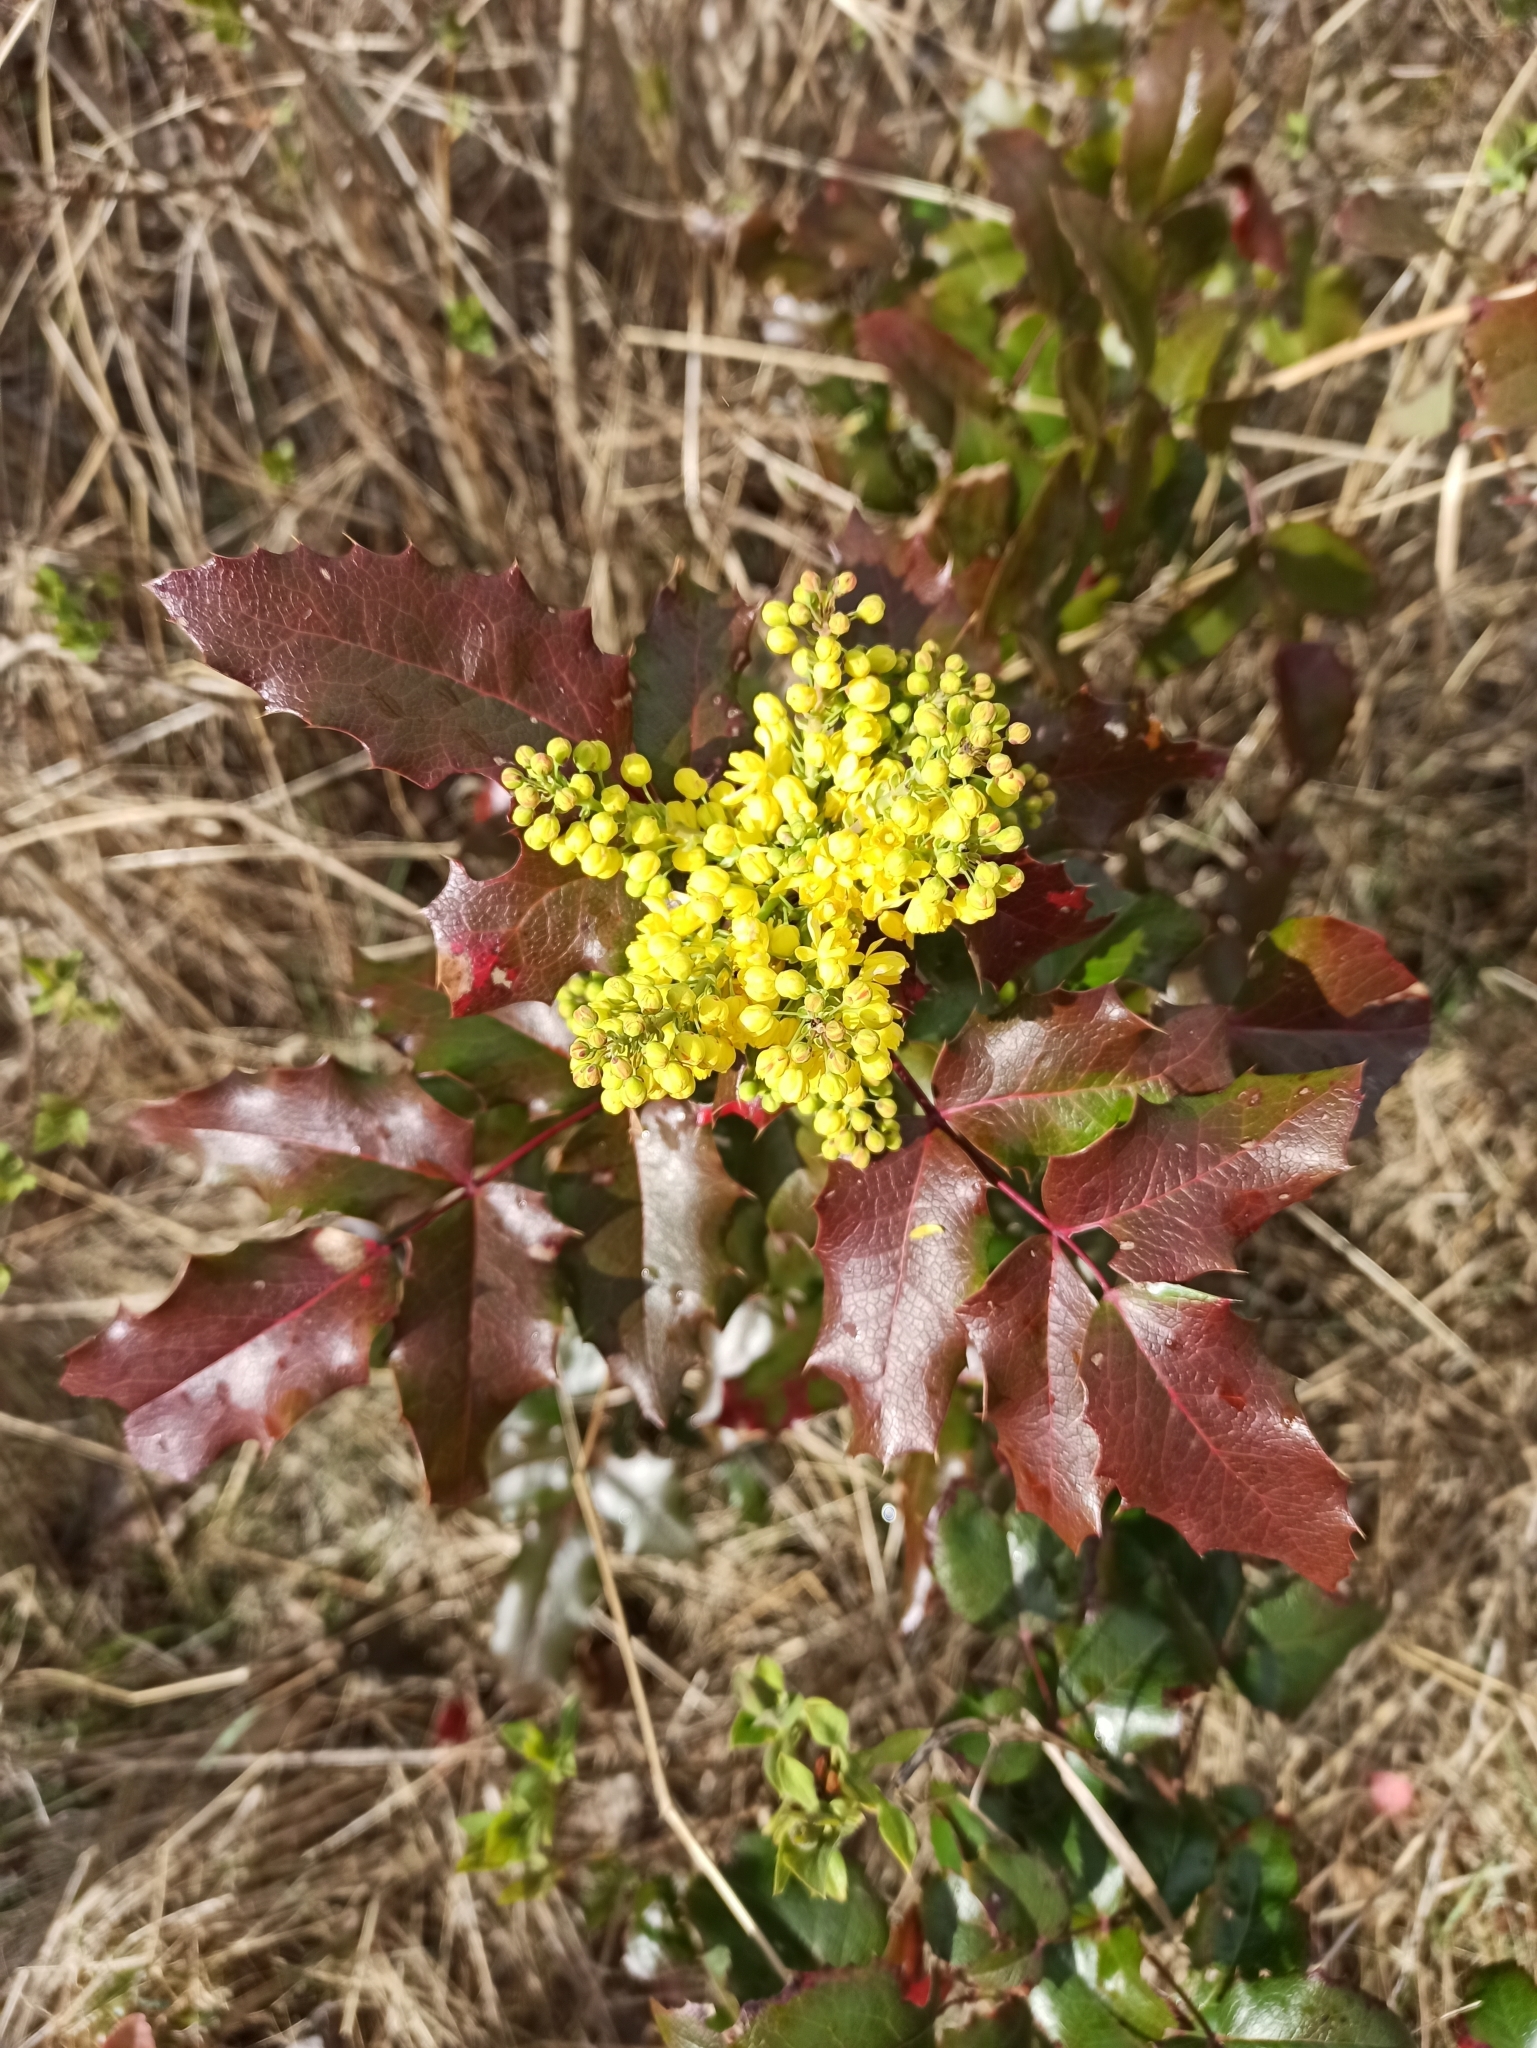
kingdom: Plantae
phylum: Tracheophyta
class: Magnoliopsida
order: Ranunculales
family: Berberidaceae
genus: Mahonia
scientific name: Mahonia aquifolium
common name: Oregon-grape
